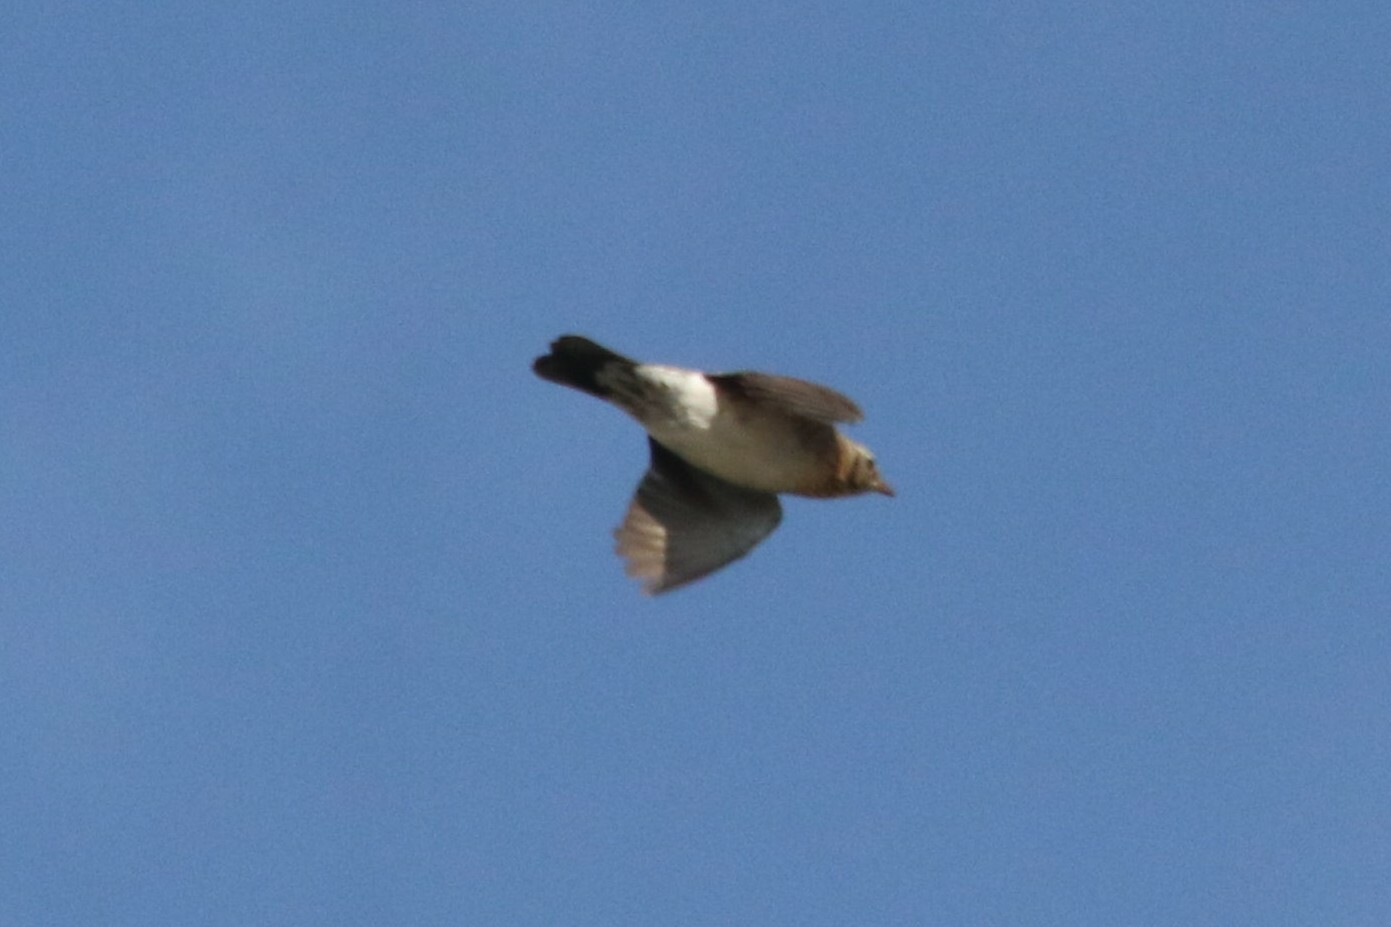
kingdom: Animalia
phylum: Chordata
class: Aves
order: Passeriformes
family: Turdidae
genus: Turdus
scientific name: Turdus pilaris
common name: Fieldfare
